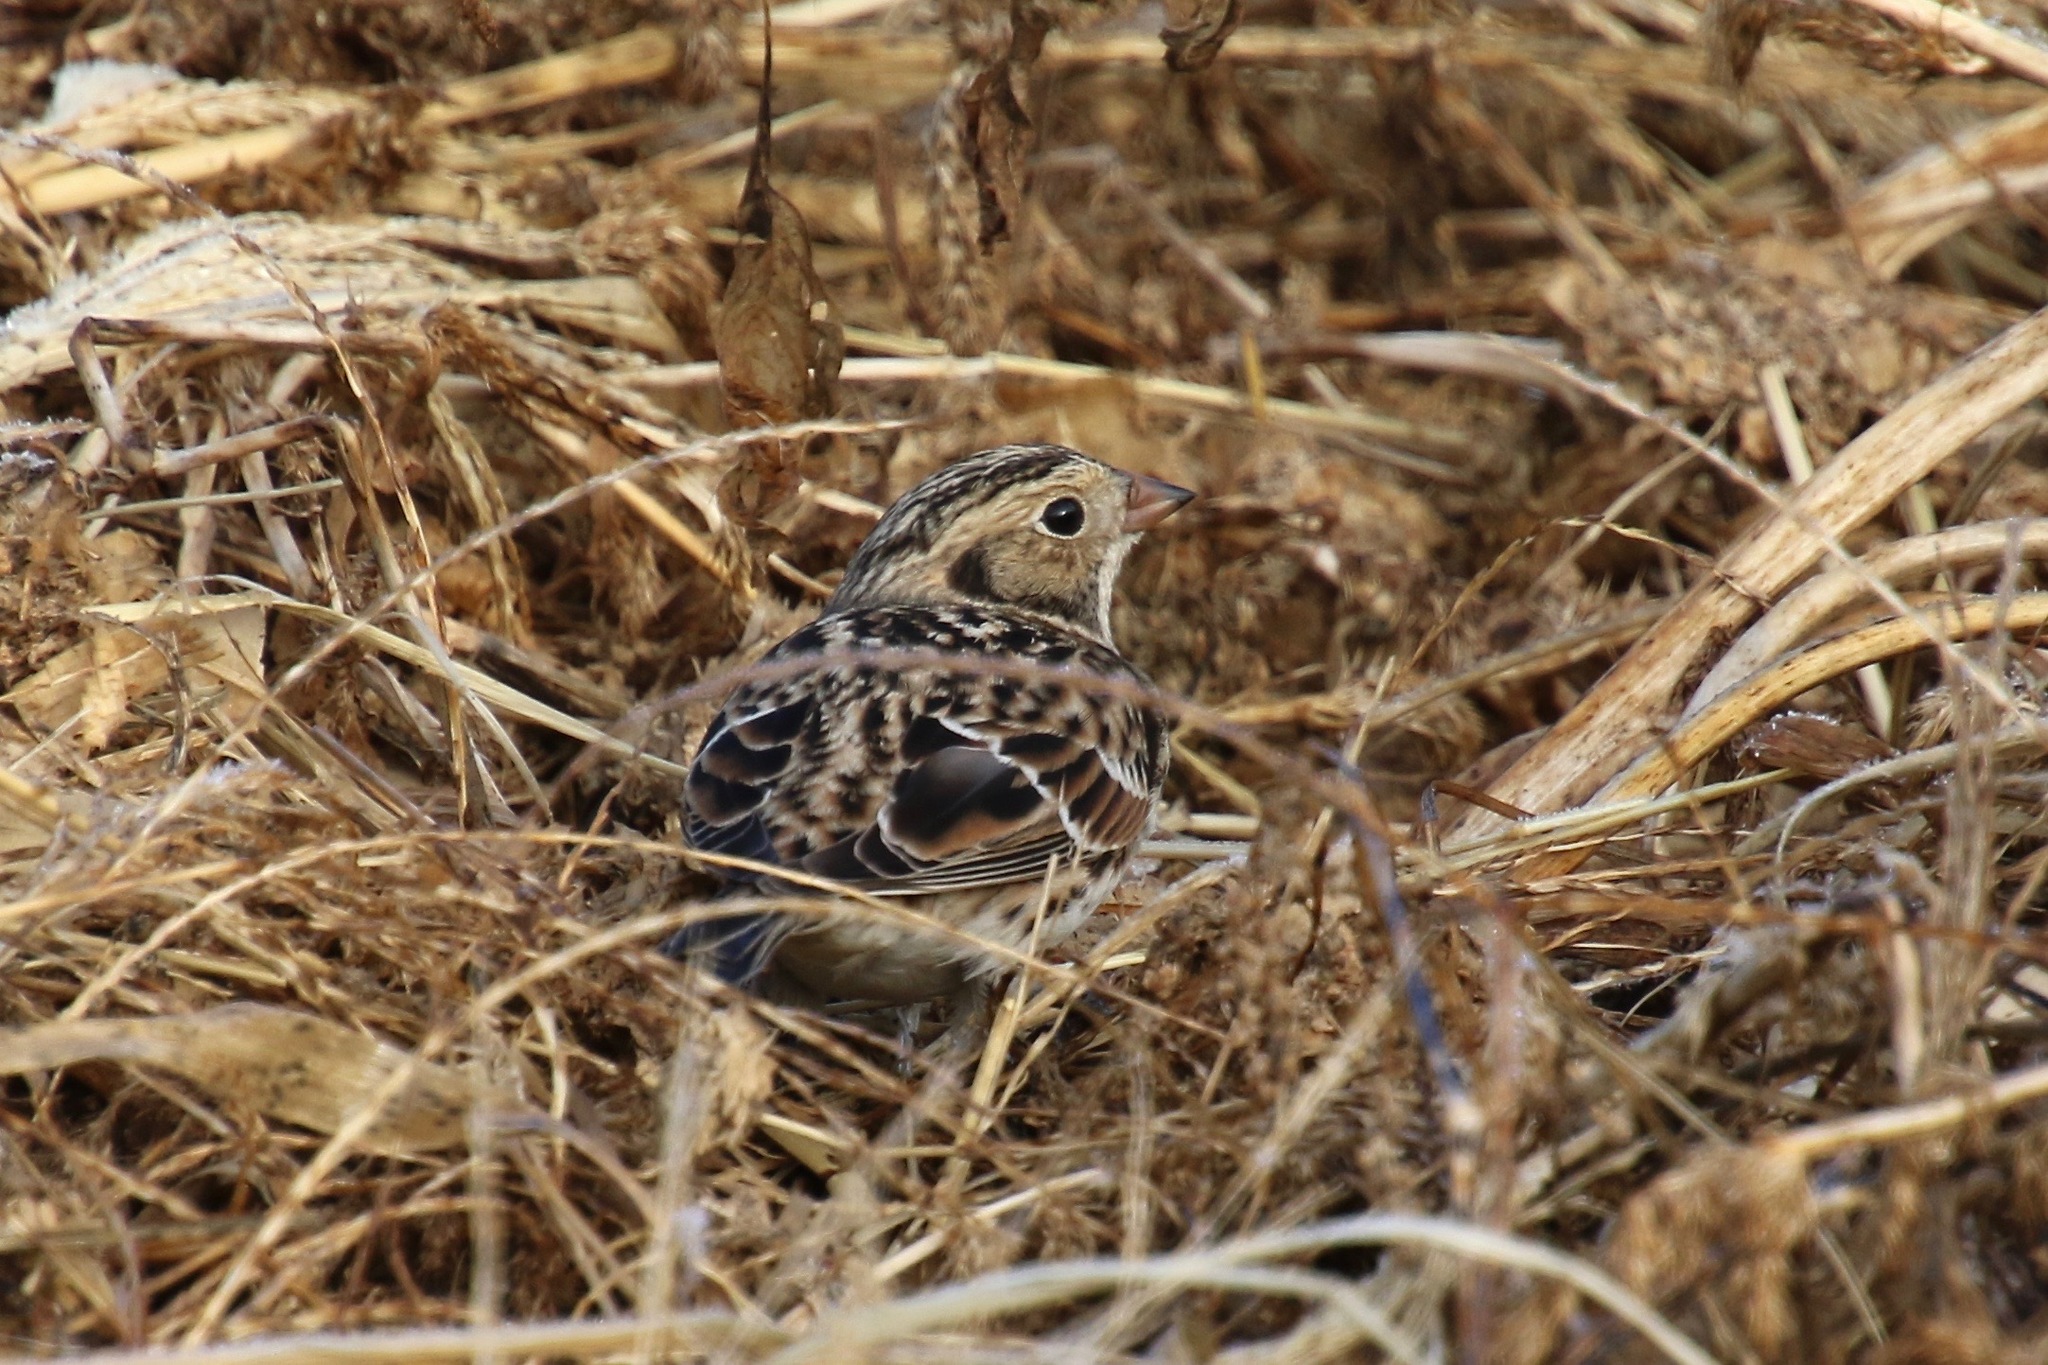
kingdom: Animalia
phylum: Chordata
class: Aves
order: Passeriformes
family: Calcariidae
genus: Calcarius
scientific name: Calcarius lapponicus
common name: Lapland longspur
